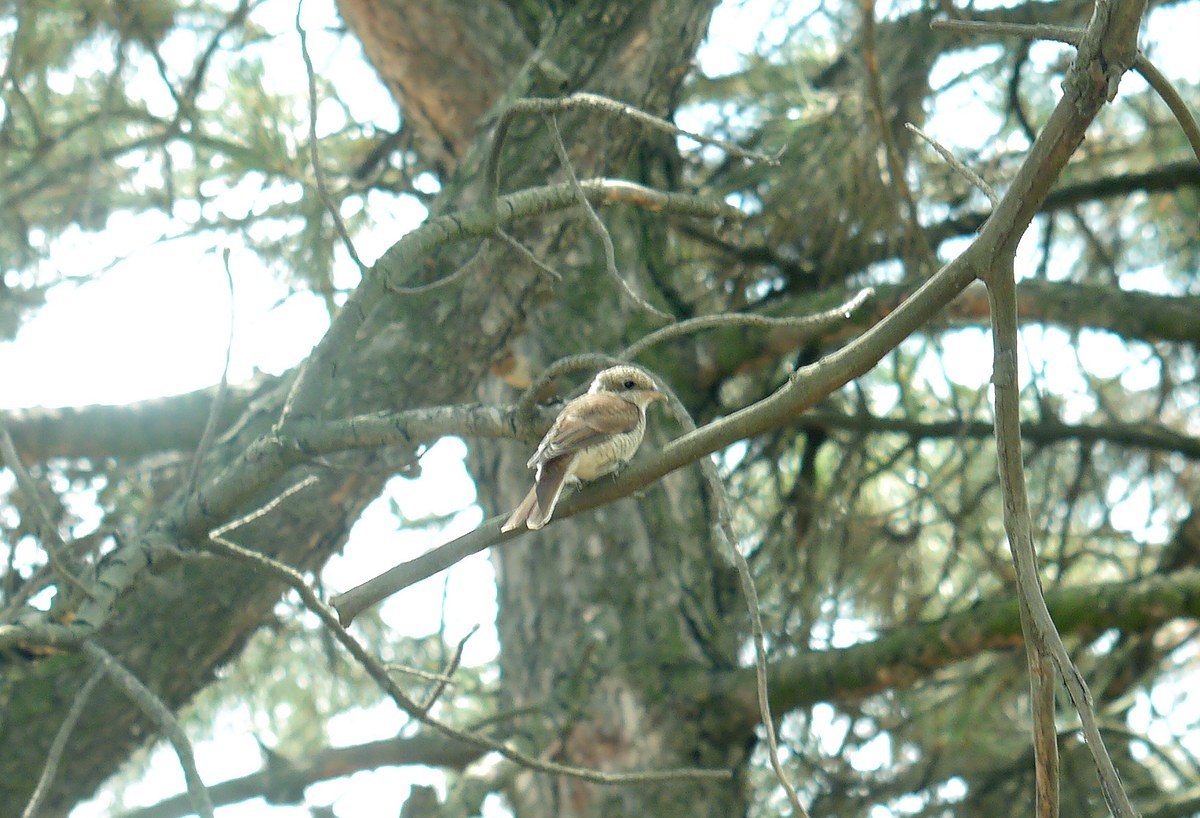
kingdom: Animalia
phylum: Chordata
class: Aves
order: Passeriformes
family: Laniidae
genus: Lanius
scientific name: Lanius collurio
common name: Red-backed shrike
